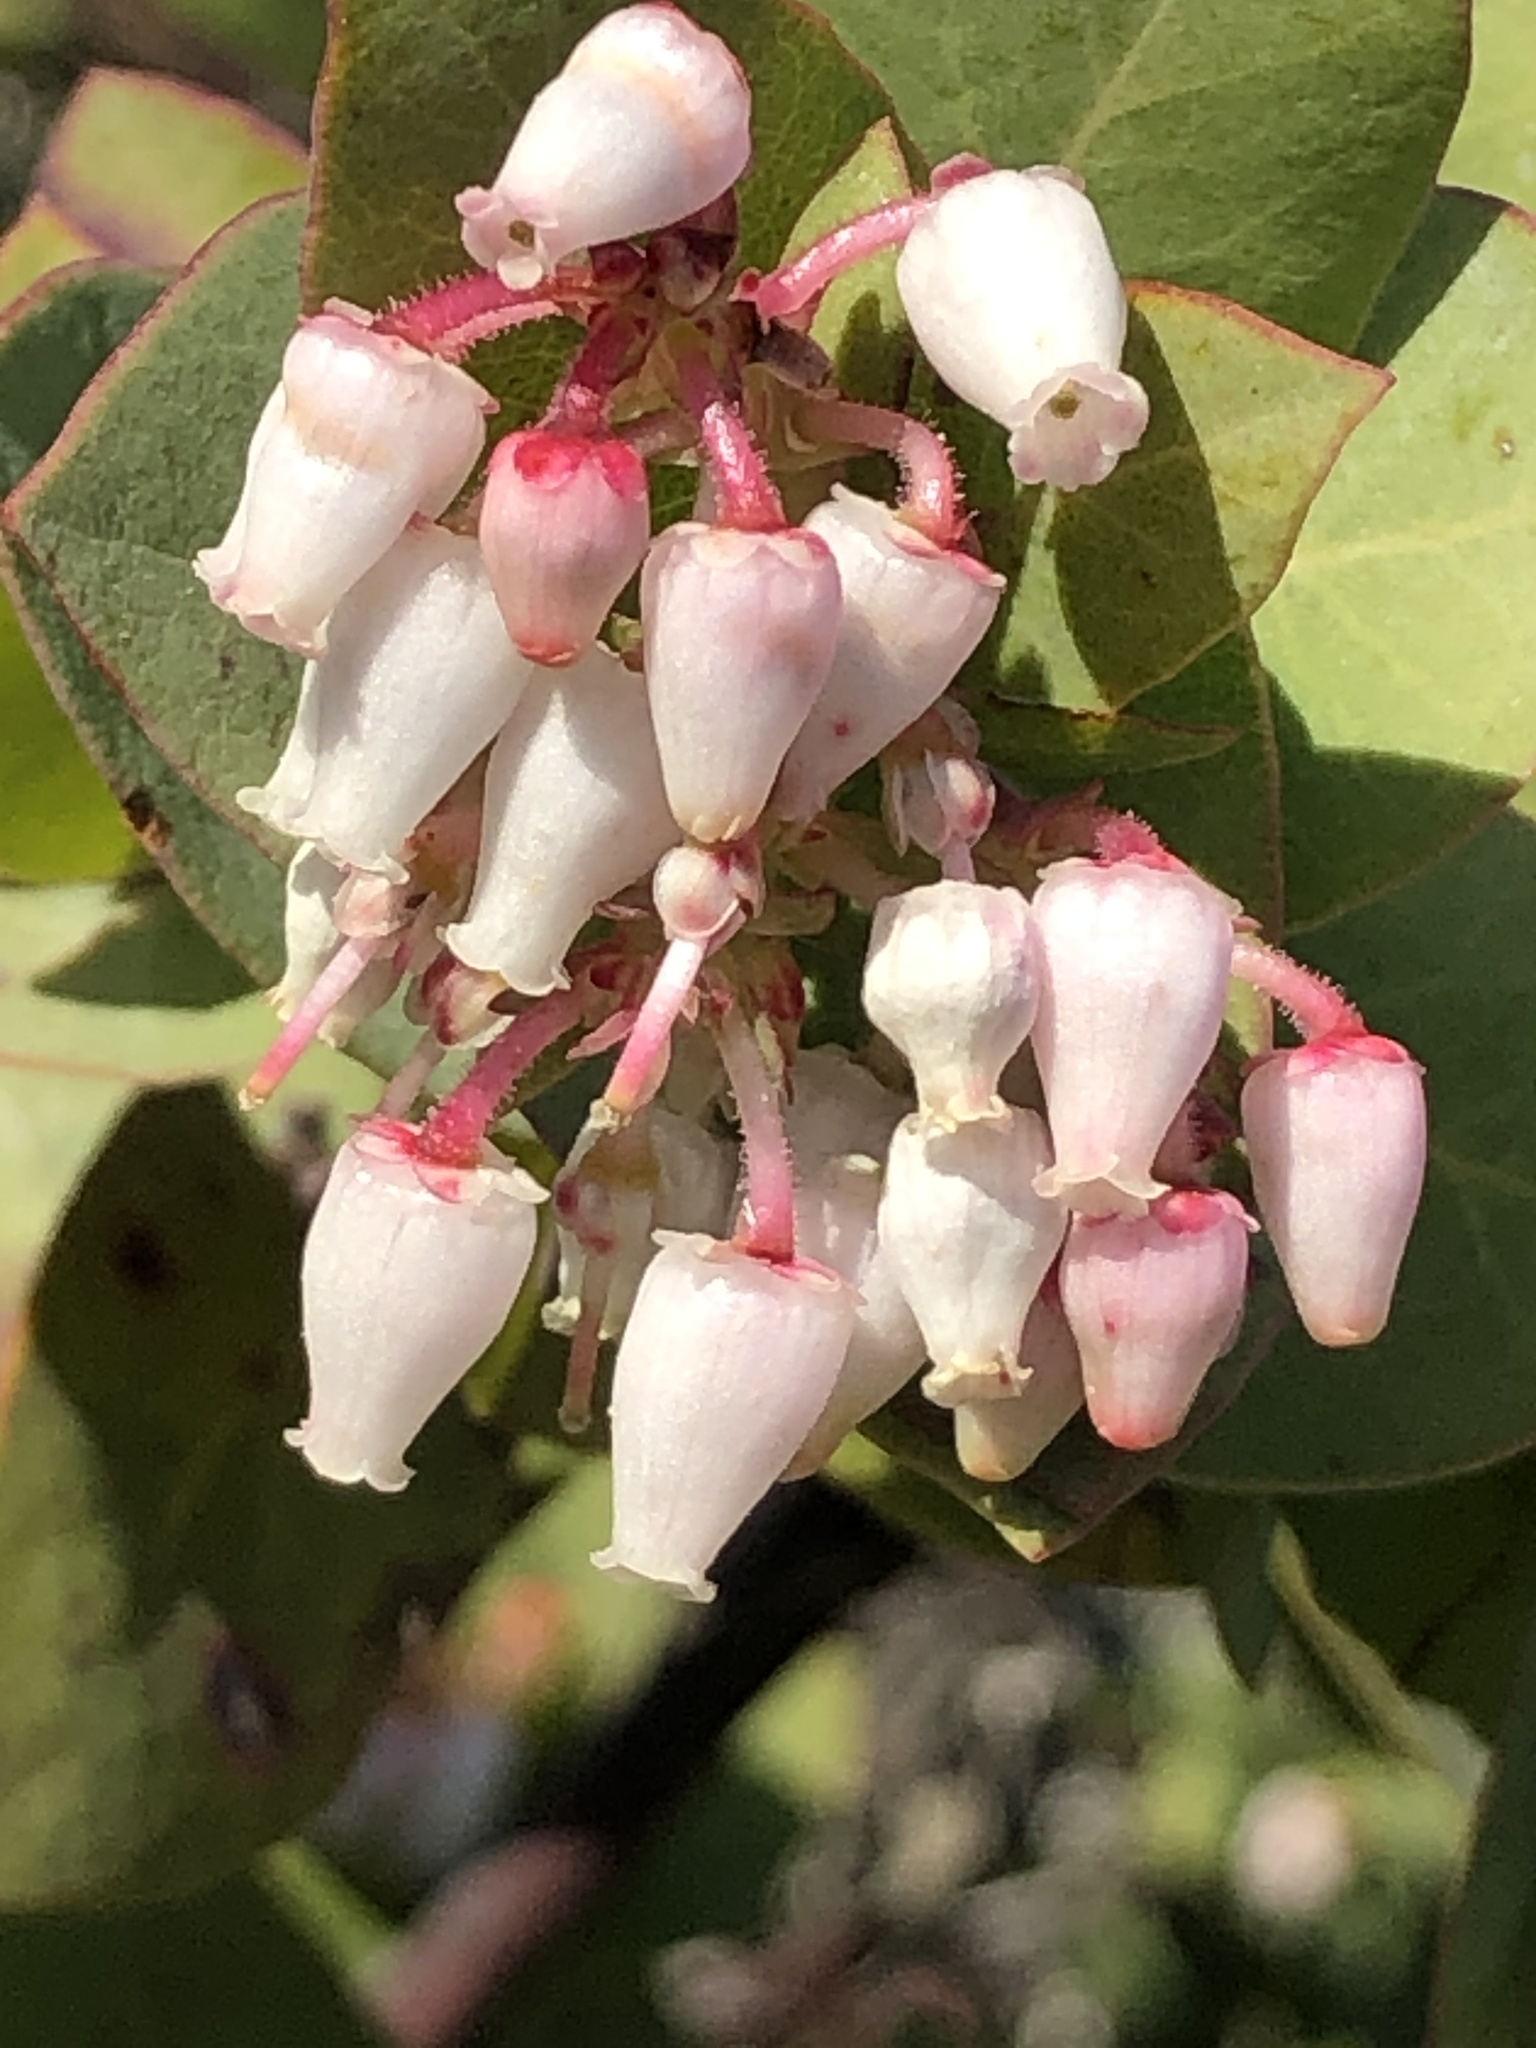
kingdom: Plantae
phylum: Tracheophyta
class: Magnoliopsida
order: Ericales
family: Ericaceae
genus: Arctostaphylos
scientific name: Arctostaphylos pallida
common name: Pallid manzanita
